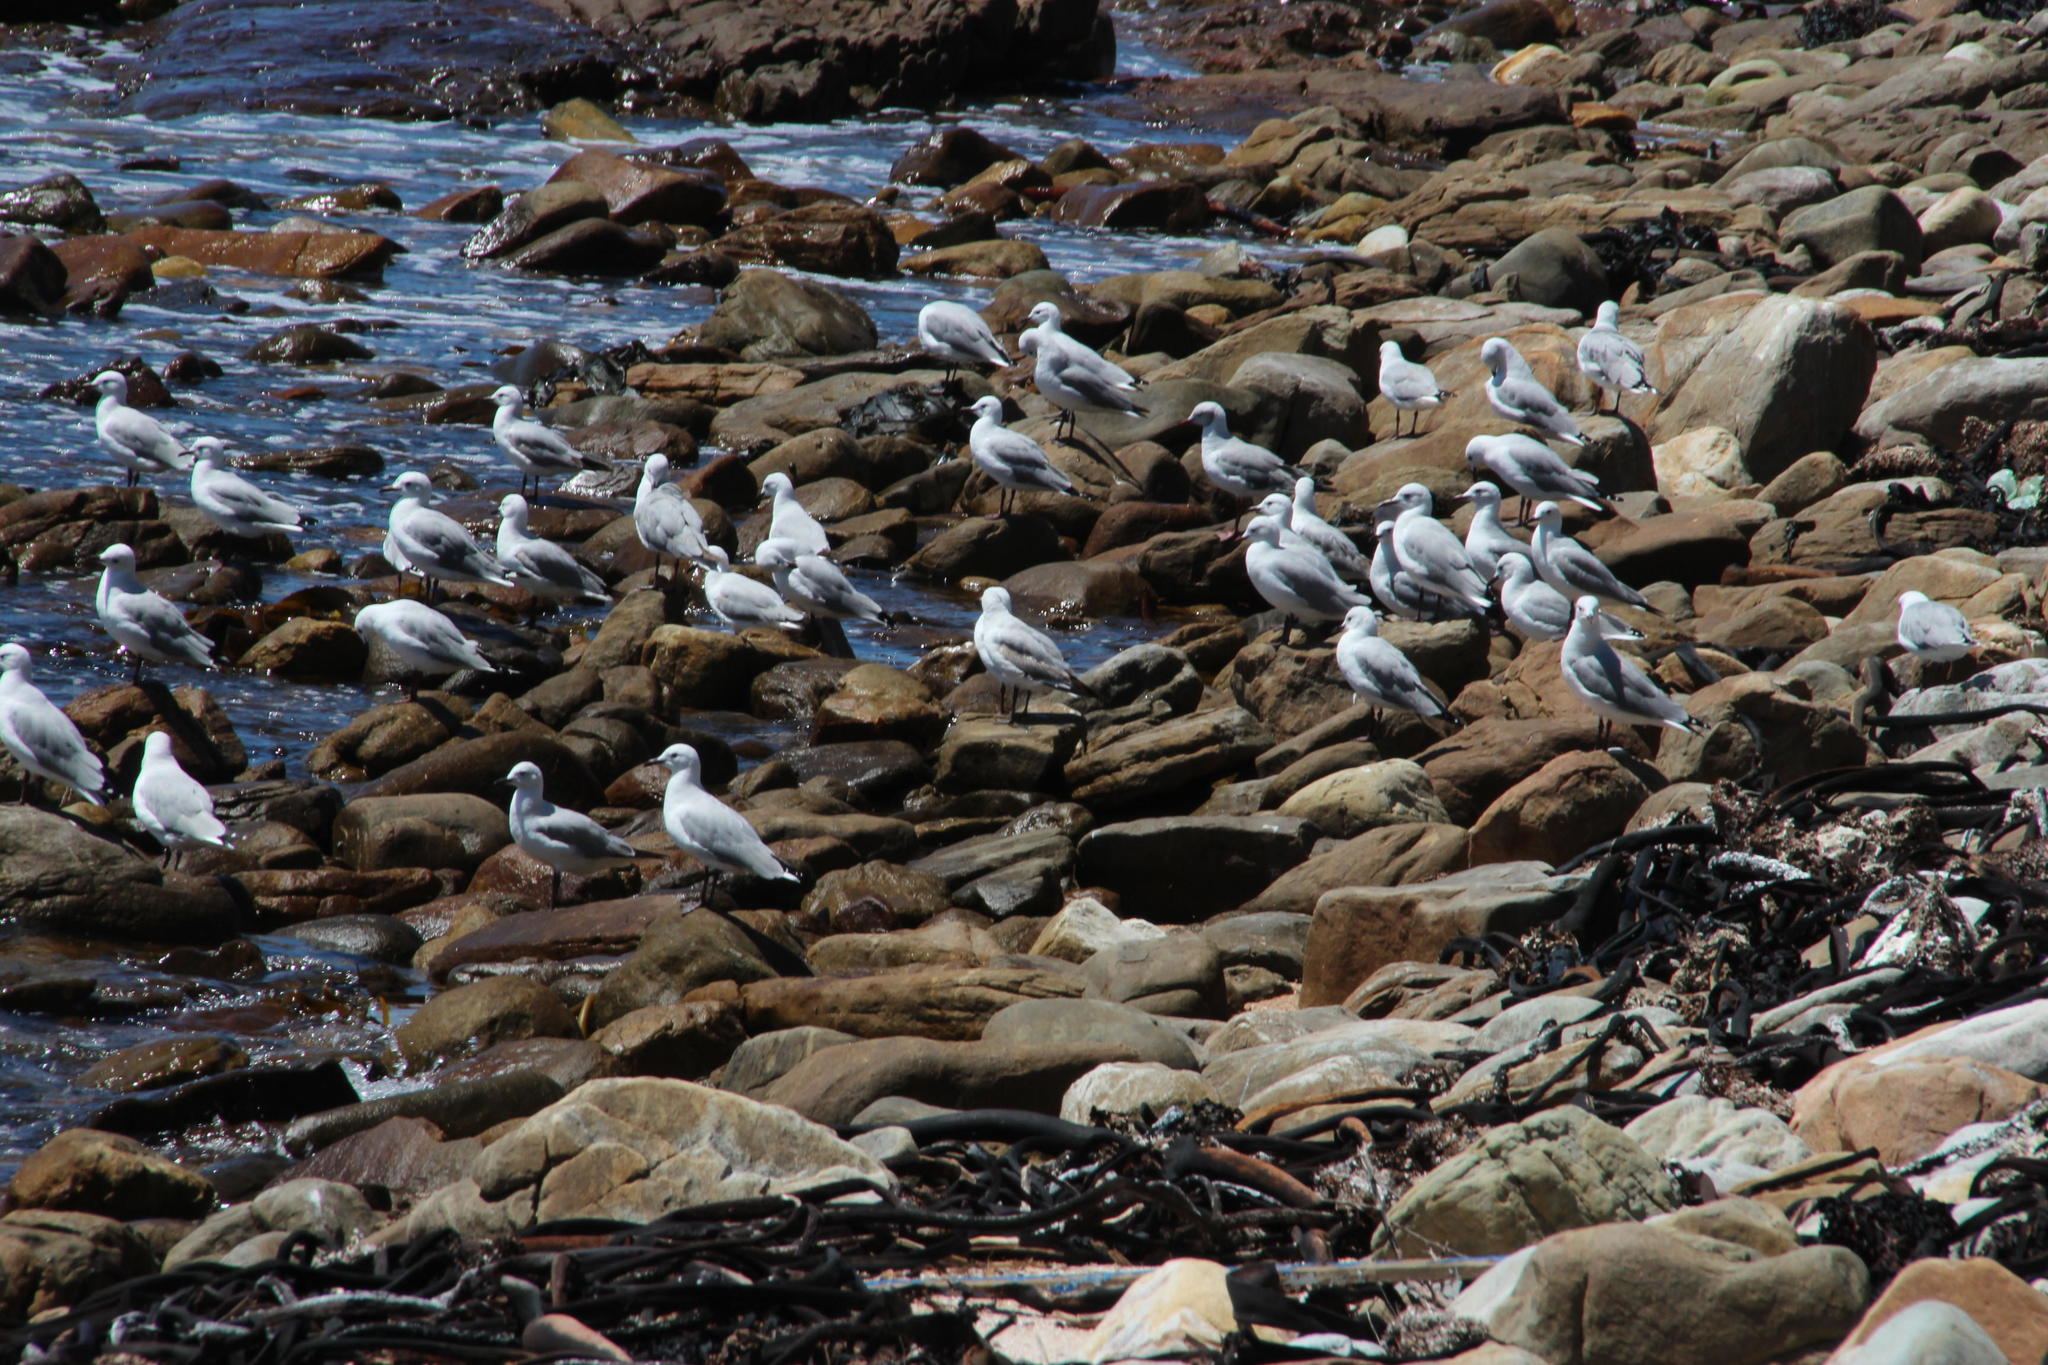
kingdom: Animalia
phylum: Chordata
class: Aves
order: Charadriiformes
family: Laridae
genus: Chroicocephalus
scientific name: Chroicocephalus hartlaubii
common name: Hartlaub's gull
